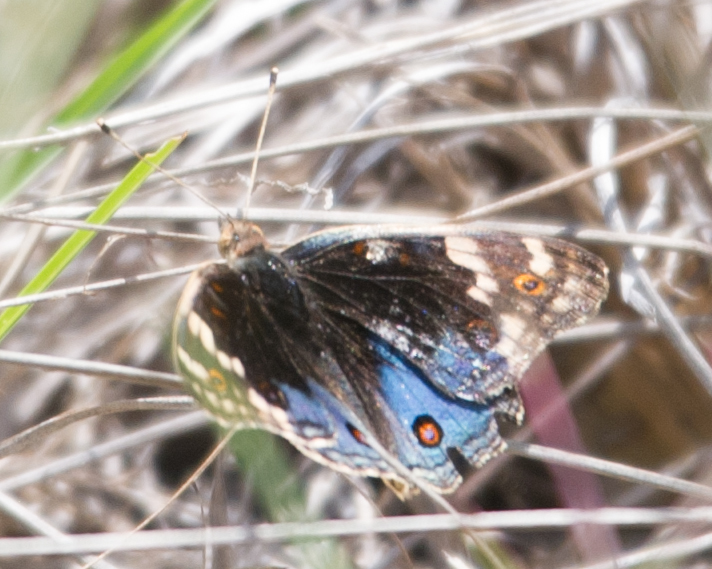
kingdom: Animalia
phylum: Arthropoda
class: Insecta
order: Lepidoptera
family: Nymphalidae
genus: Junonia
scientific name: Junonia orithya
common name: Blue pansy
